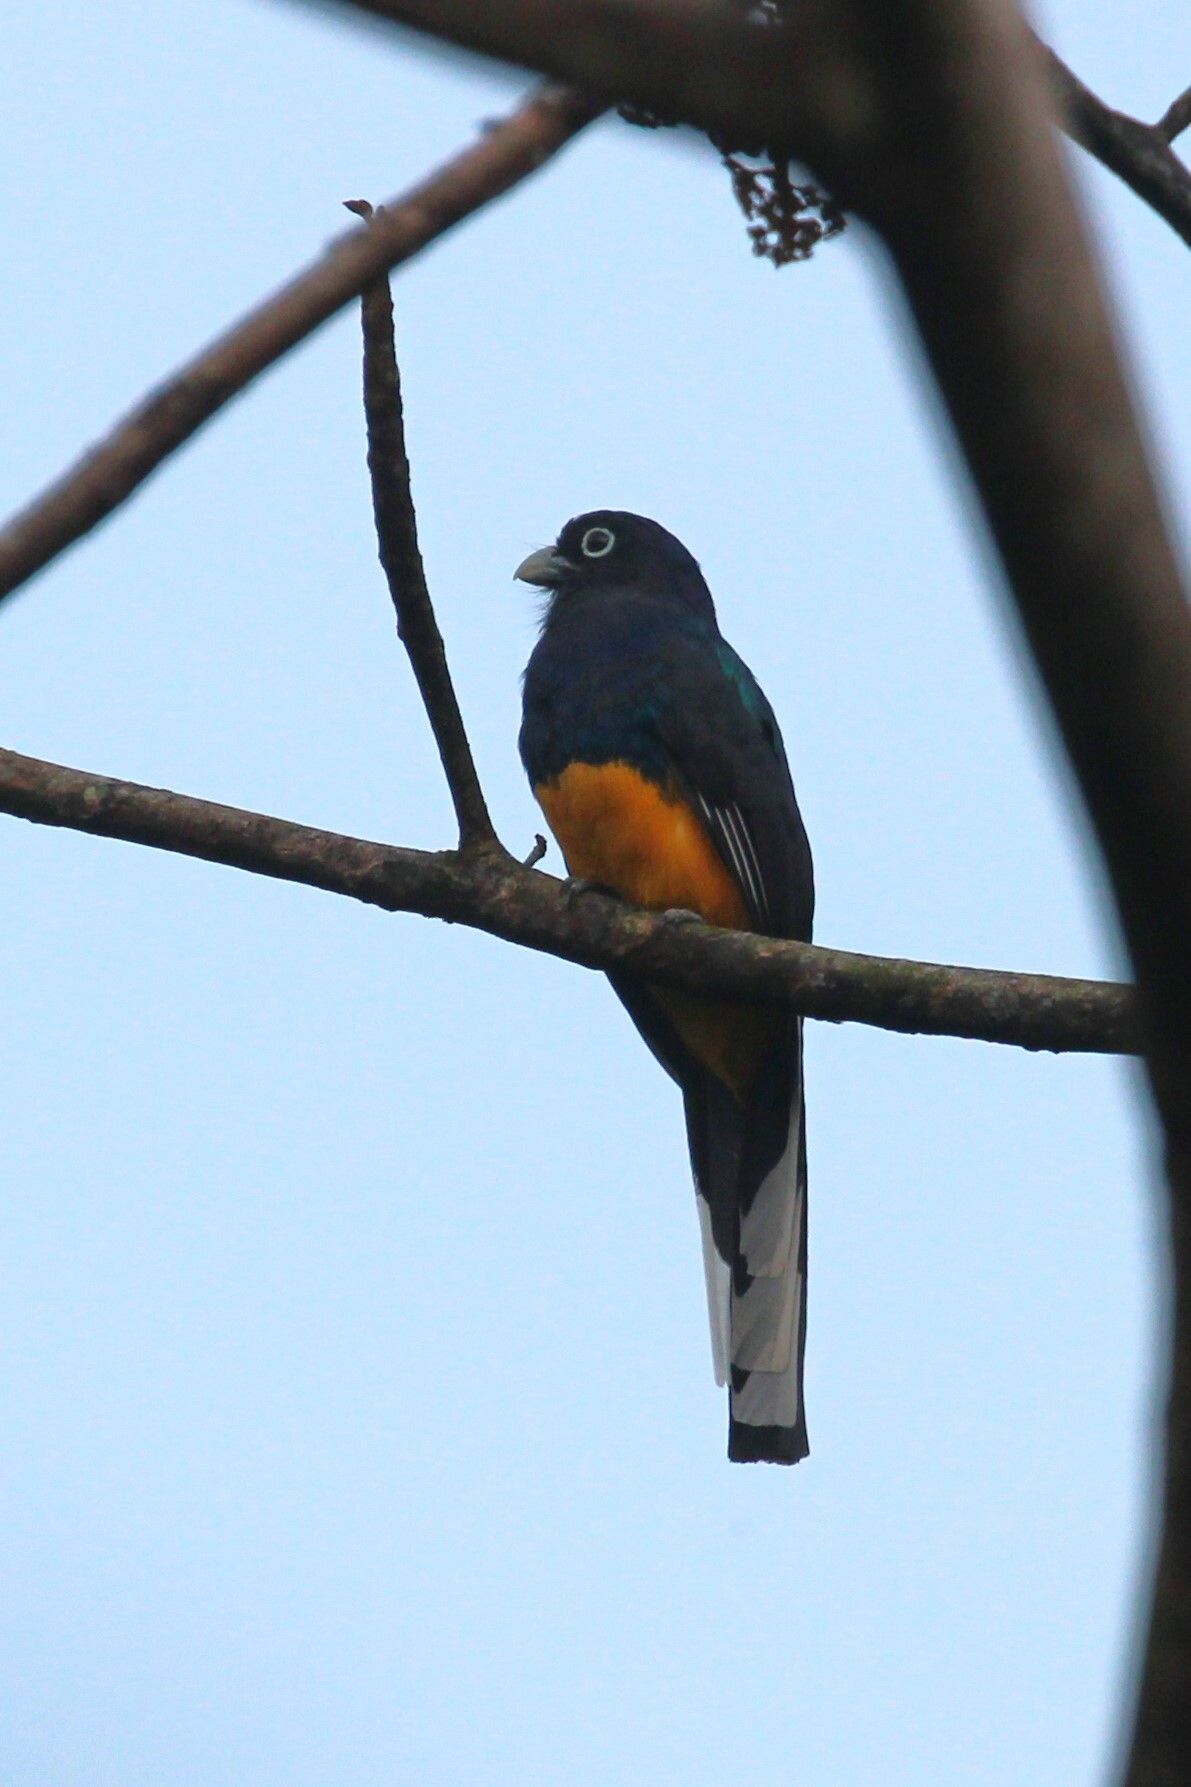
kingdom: Animalia
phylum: Chordata
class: Aves
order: Trogoniformes
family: Trogonidae
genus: Trogon
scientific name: Trogon viridis
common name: Green-backed trogon
